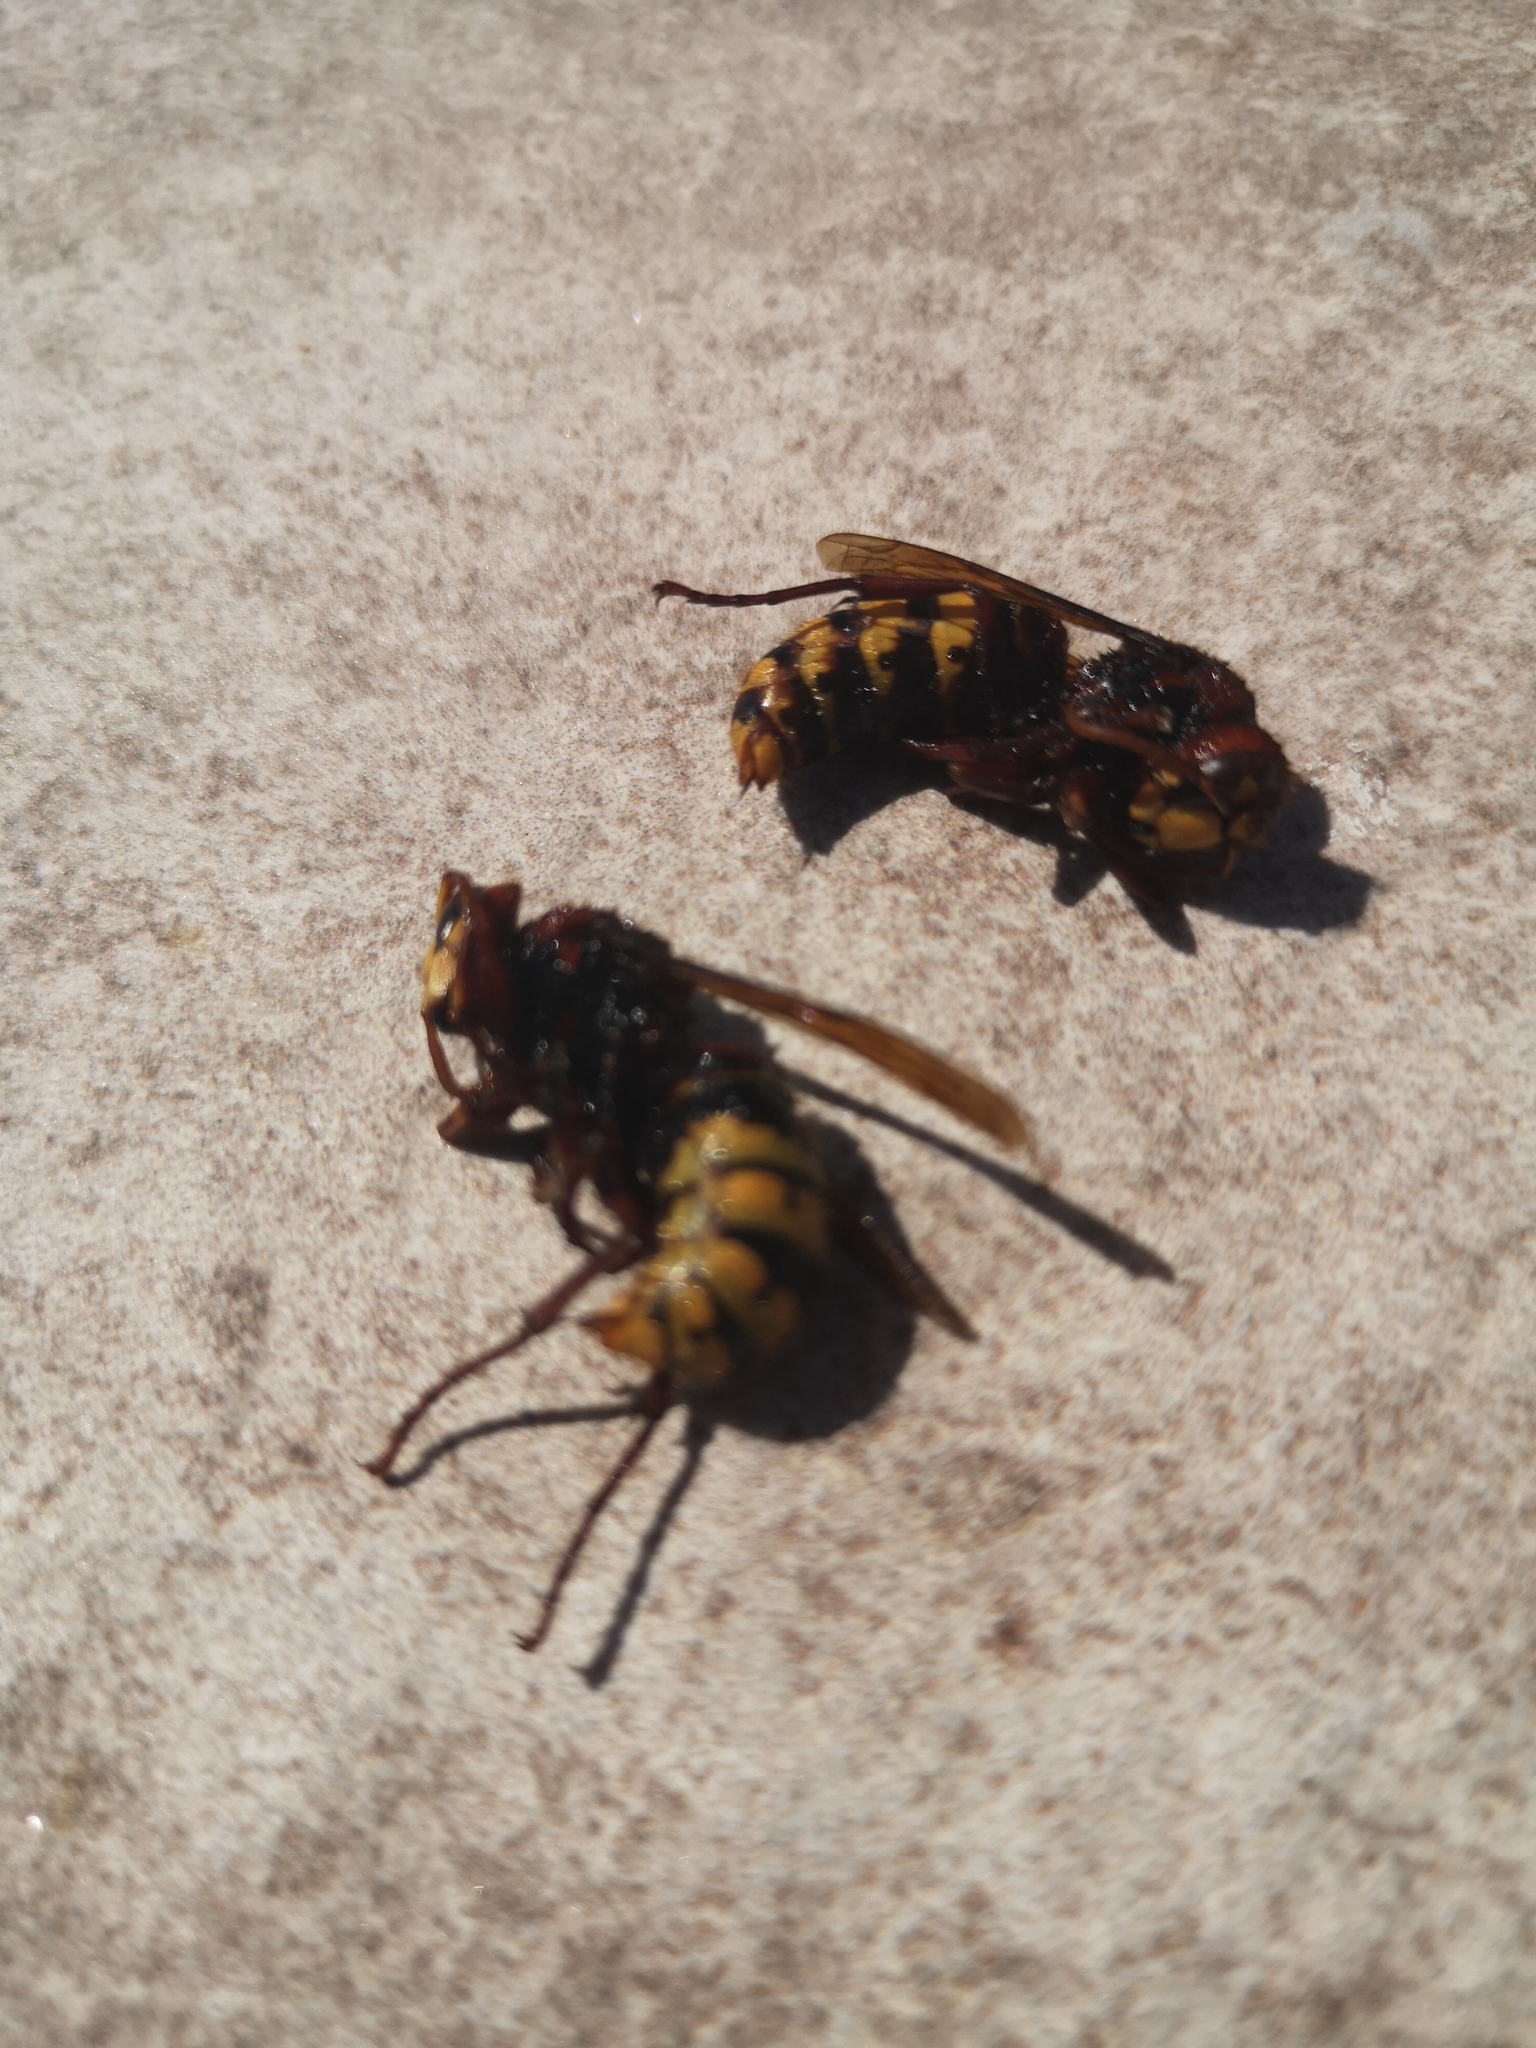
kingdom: Animalia
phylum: Arthropoda
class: Insecta
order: Hymenoptera
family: Vespidae
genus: Vespa
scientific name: Vespa crabro
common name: Hornet
